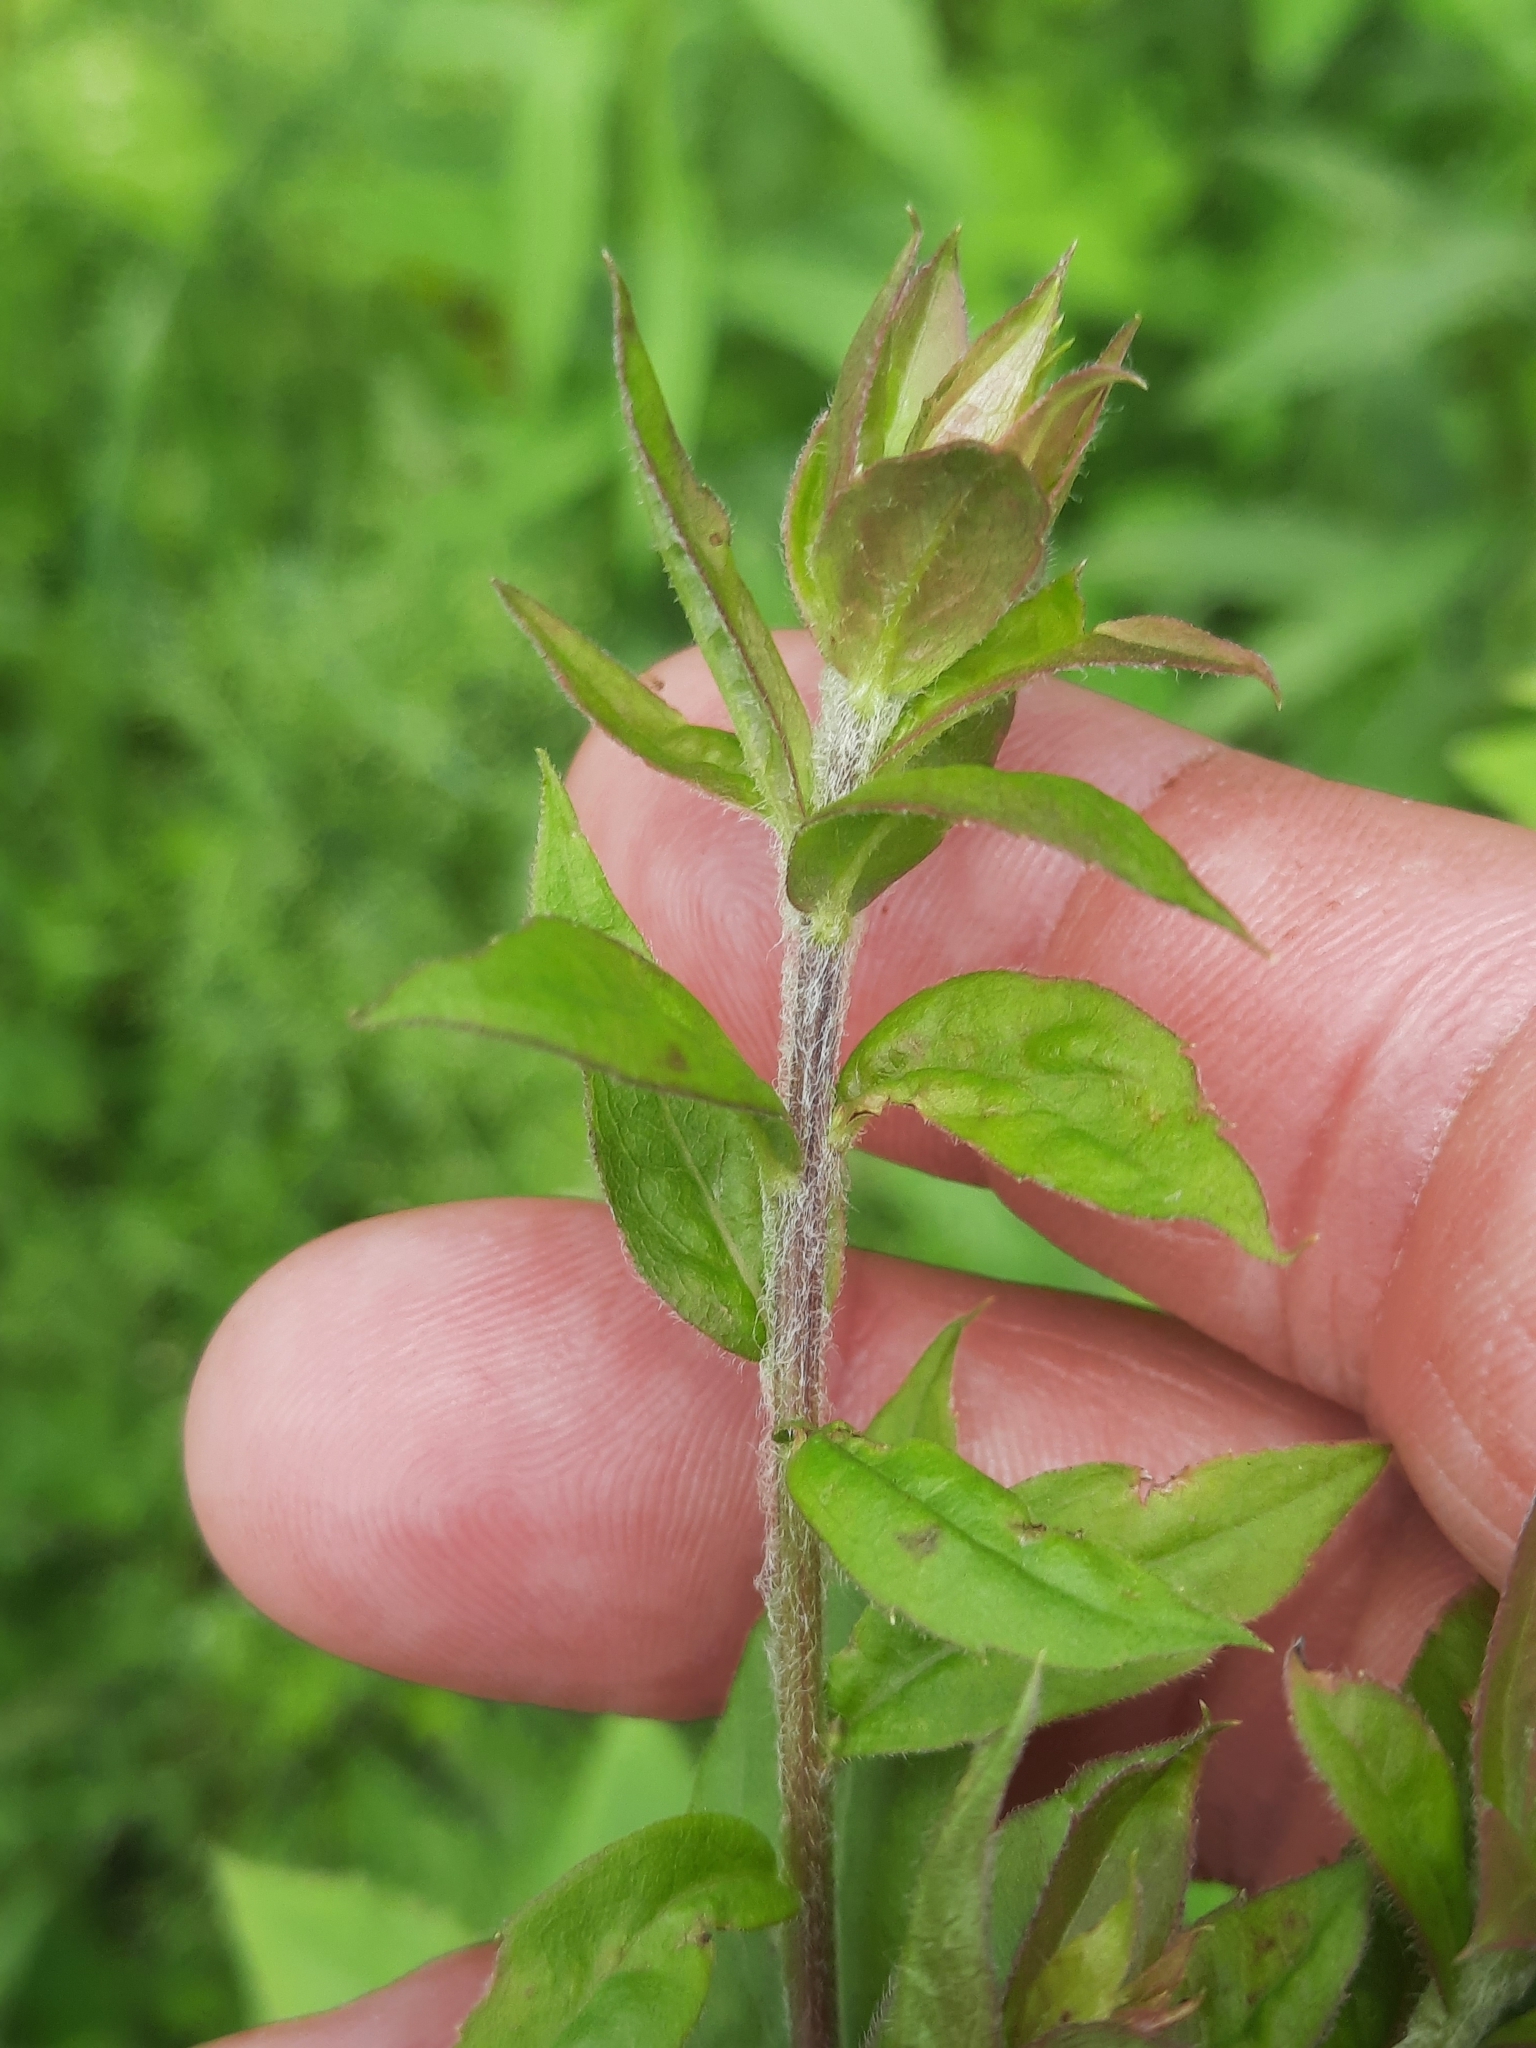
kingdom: Plantae
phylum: Tracheophyta
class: Magnoliopsida
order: Asterales
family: Asteraceae
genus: Solidago
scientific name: Solidago rugosa
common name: Rough-stemmed goldenrod
